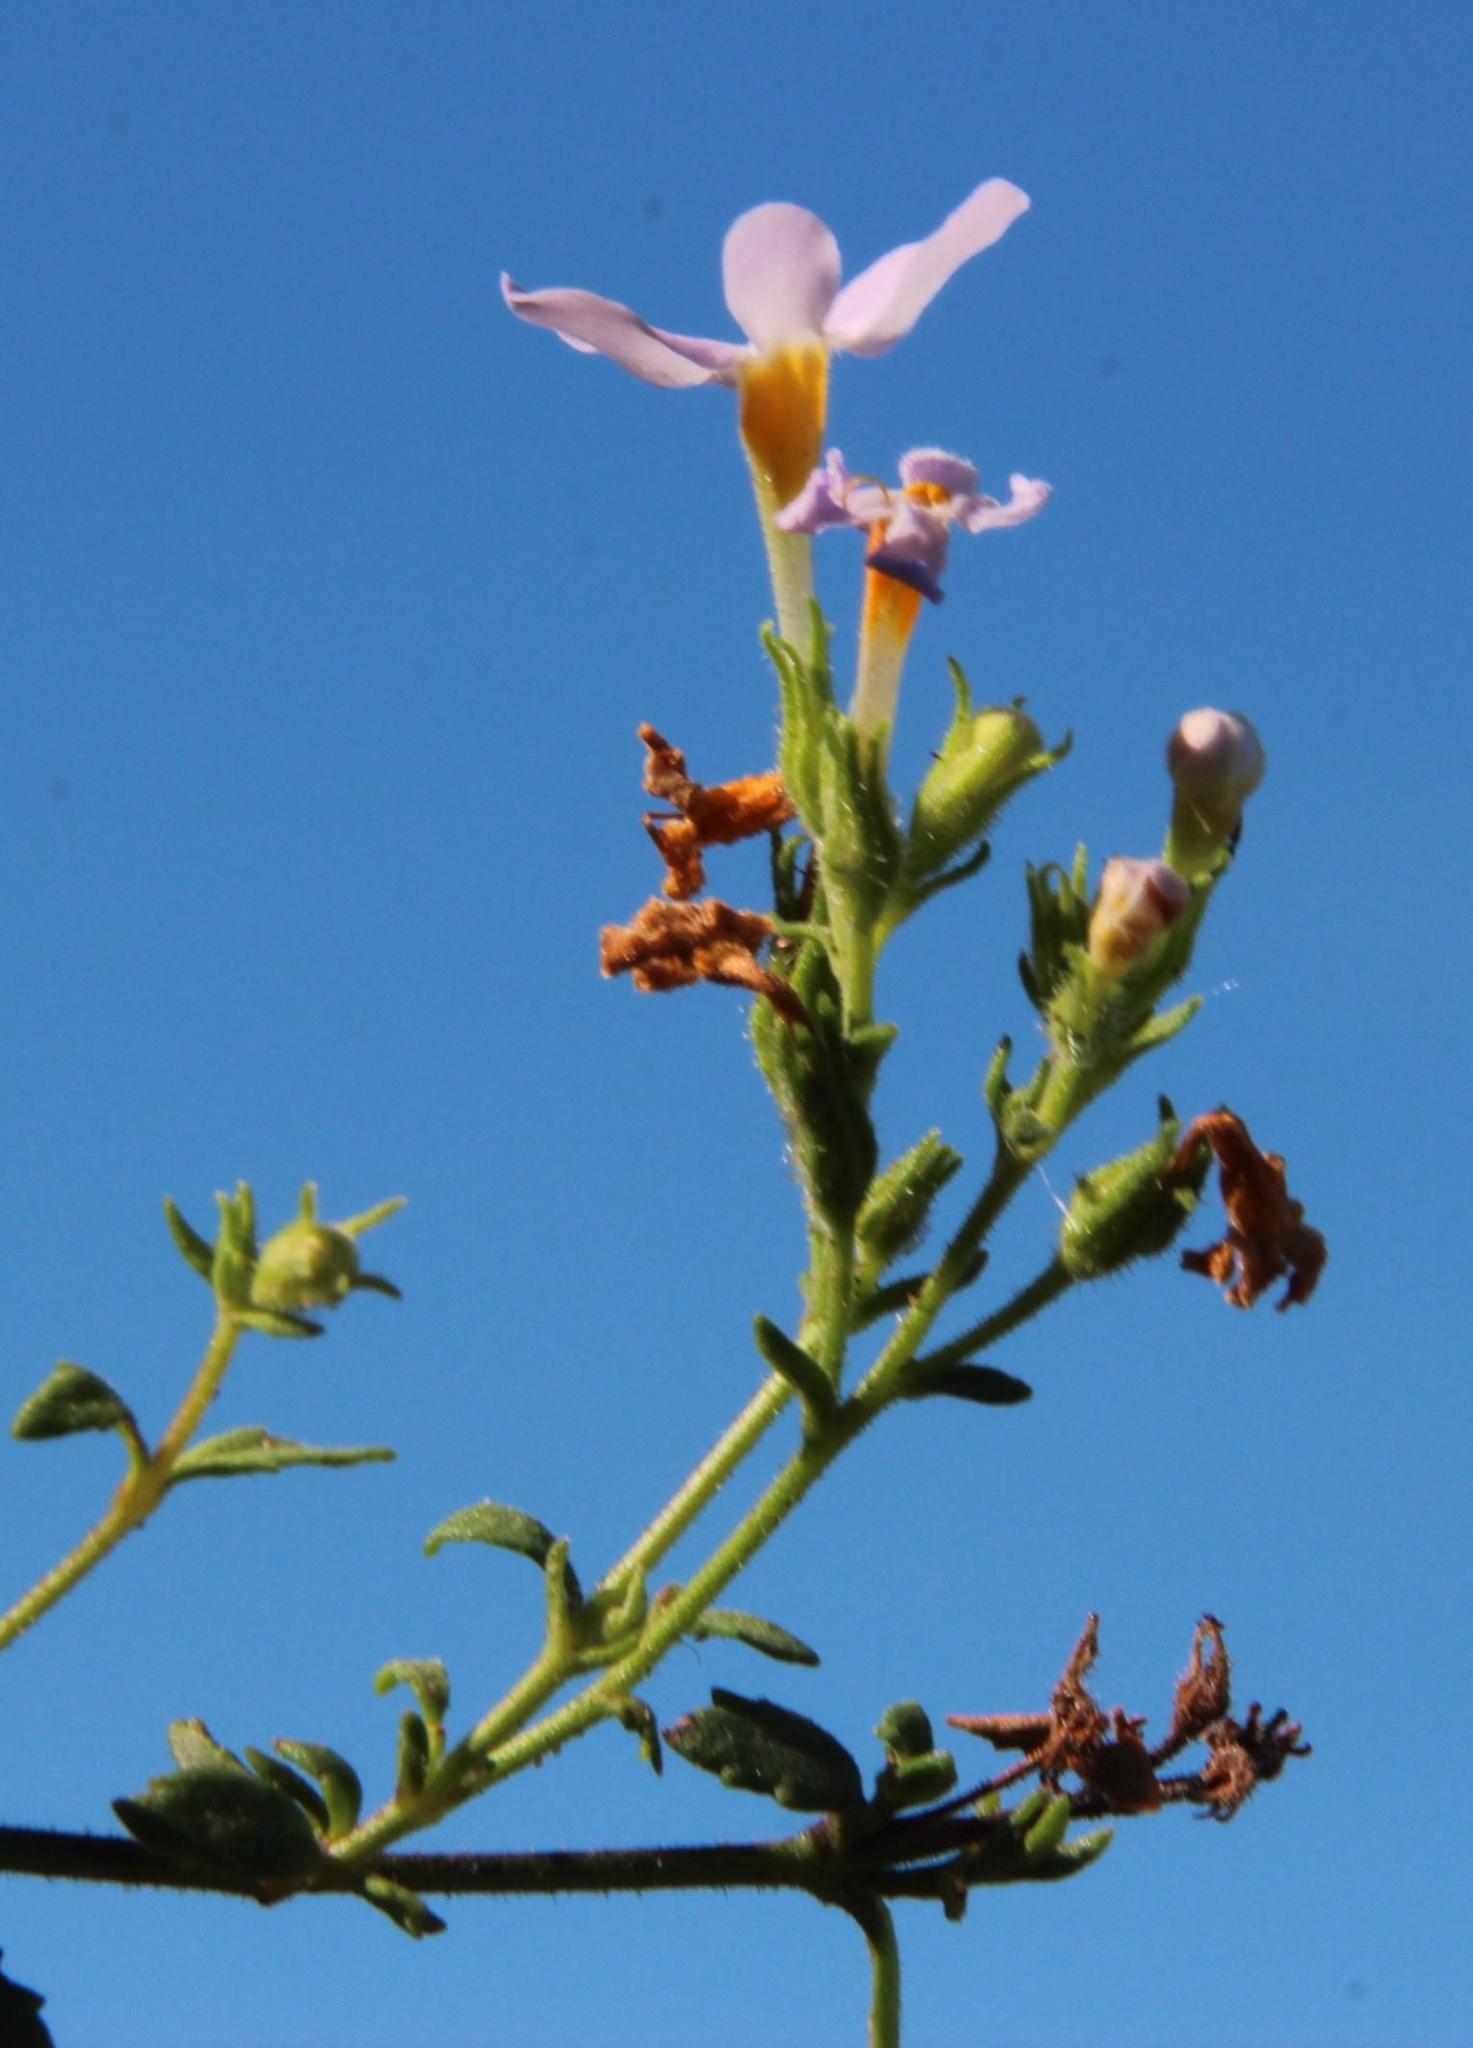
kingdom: Plantae
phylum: Tracheophyta
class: Magnoliopsida
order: Lamiales
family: Scrophulariaceae
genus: Chaenostoma
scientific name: Chaenostoma hispidum
